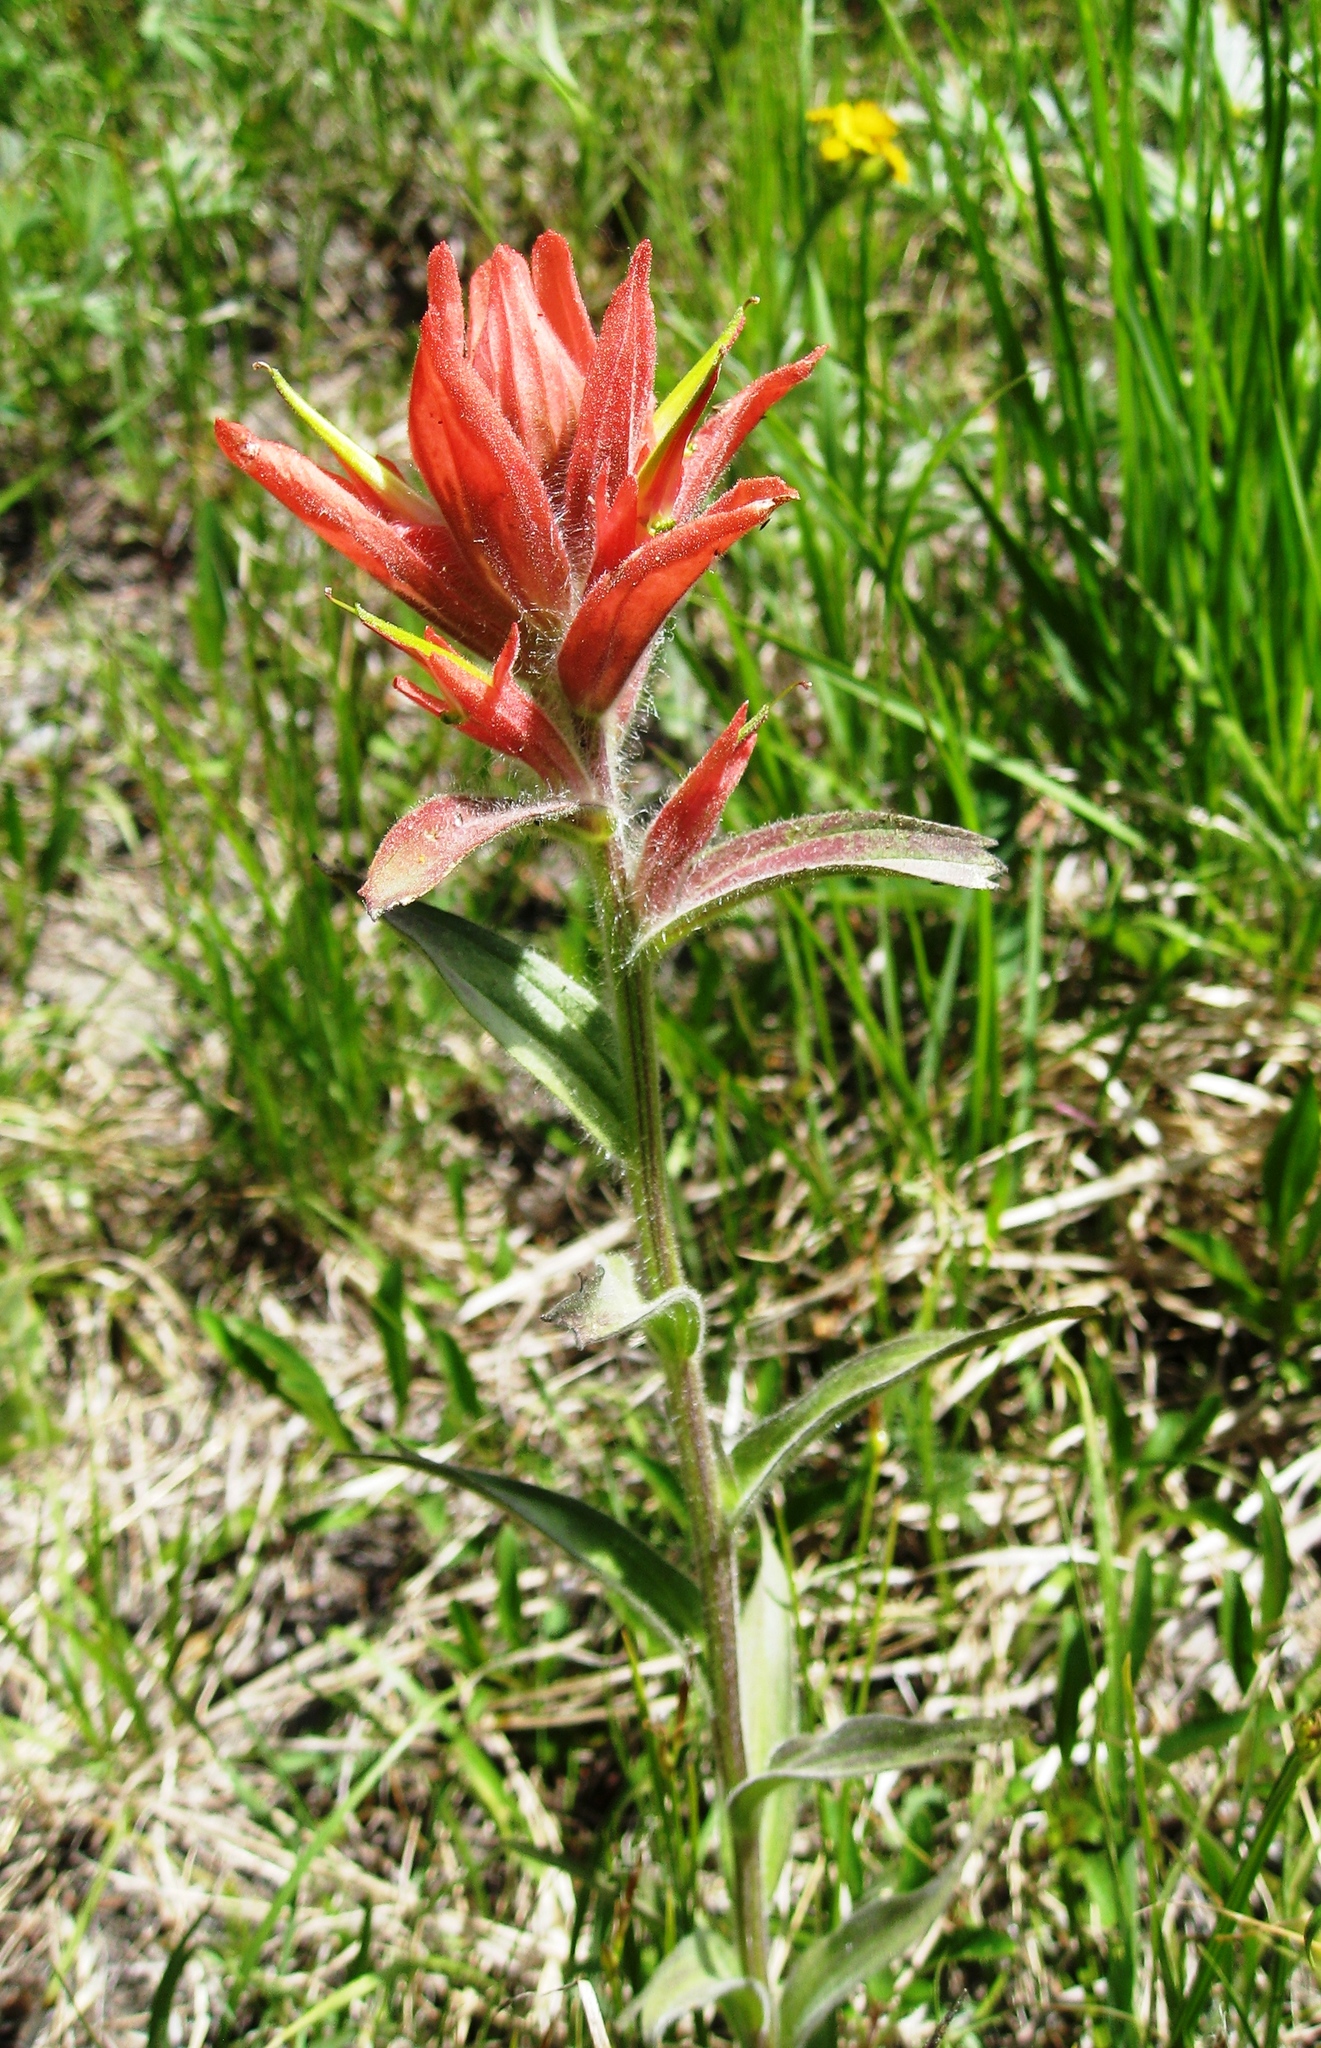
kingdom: Plantae
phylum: Tracheophyta
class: Magnoliopsida
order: Lamiales
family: Orobanchaceae
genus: Castilleja
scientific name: Castilleja miniata
